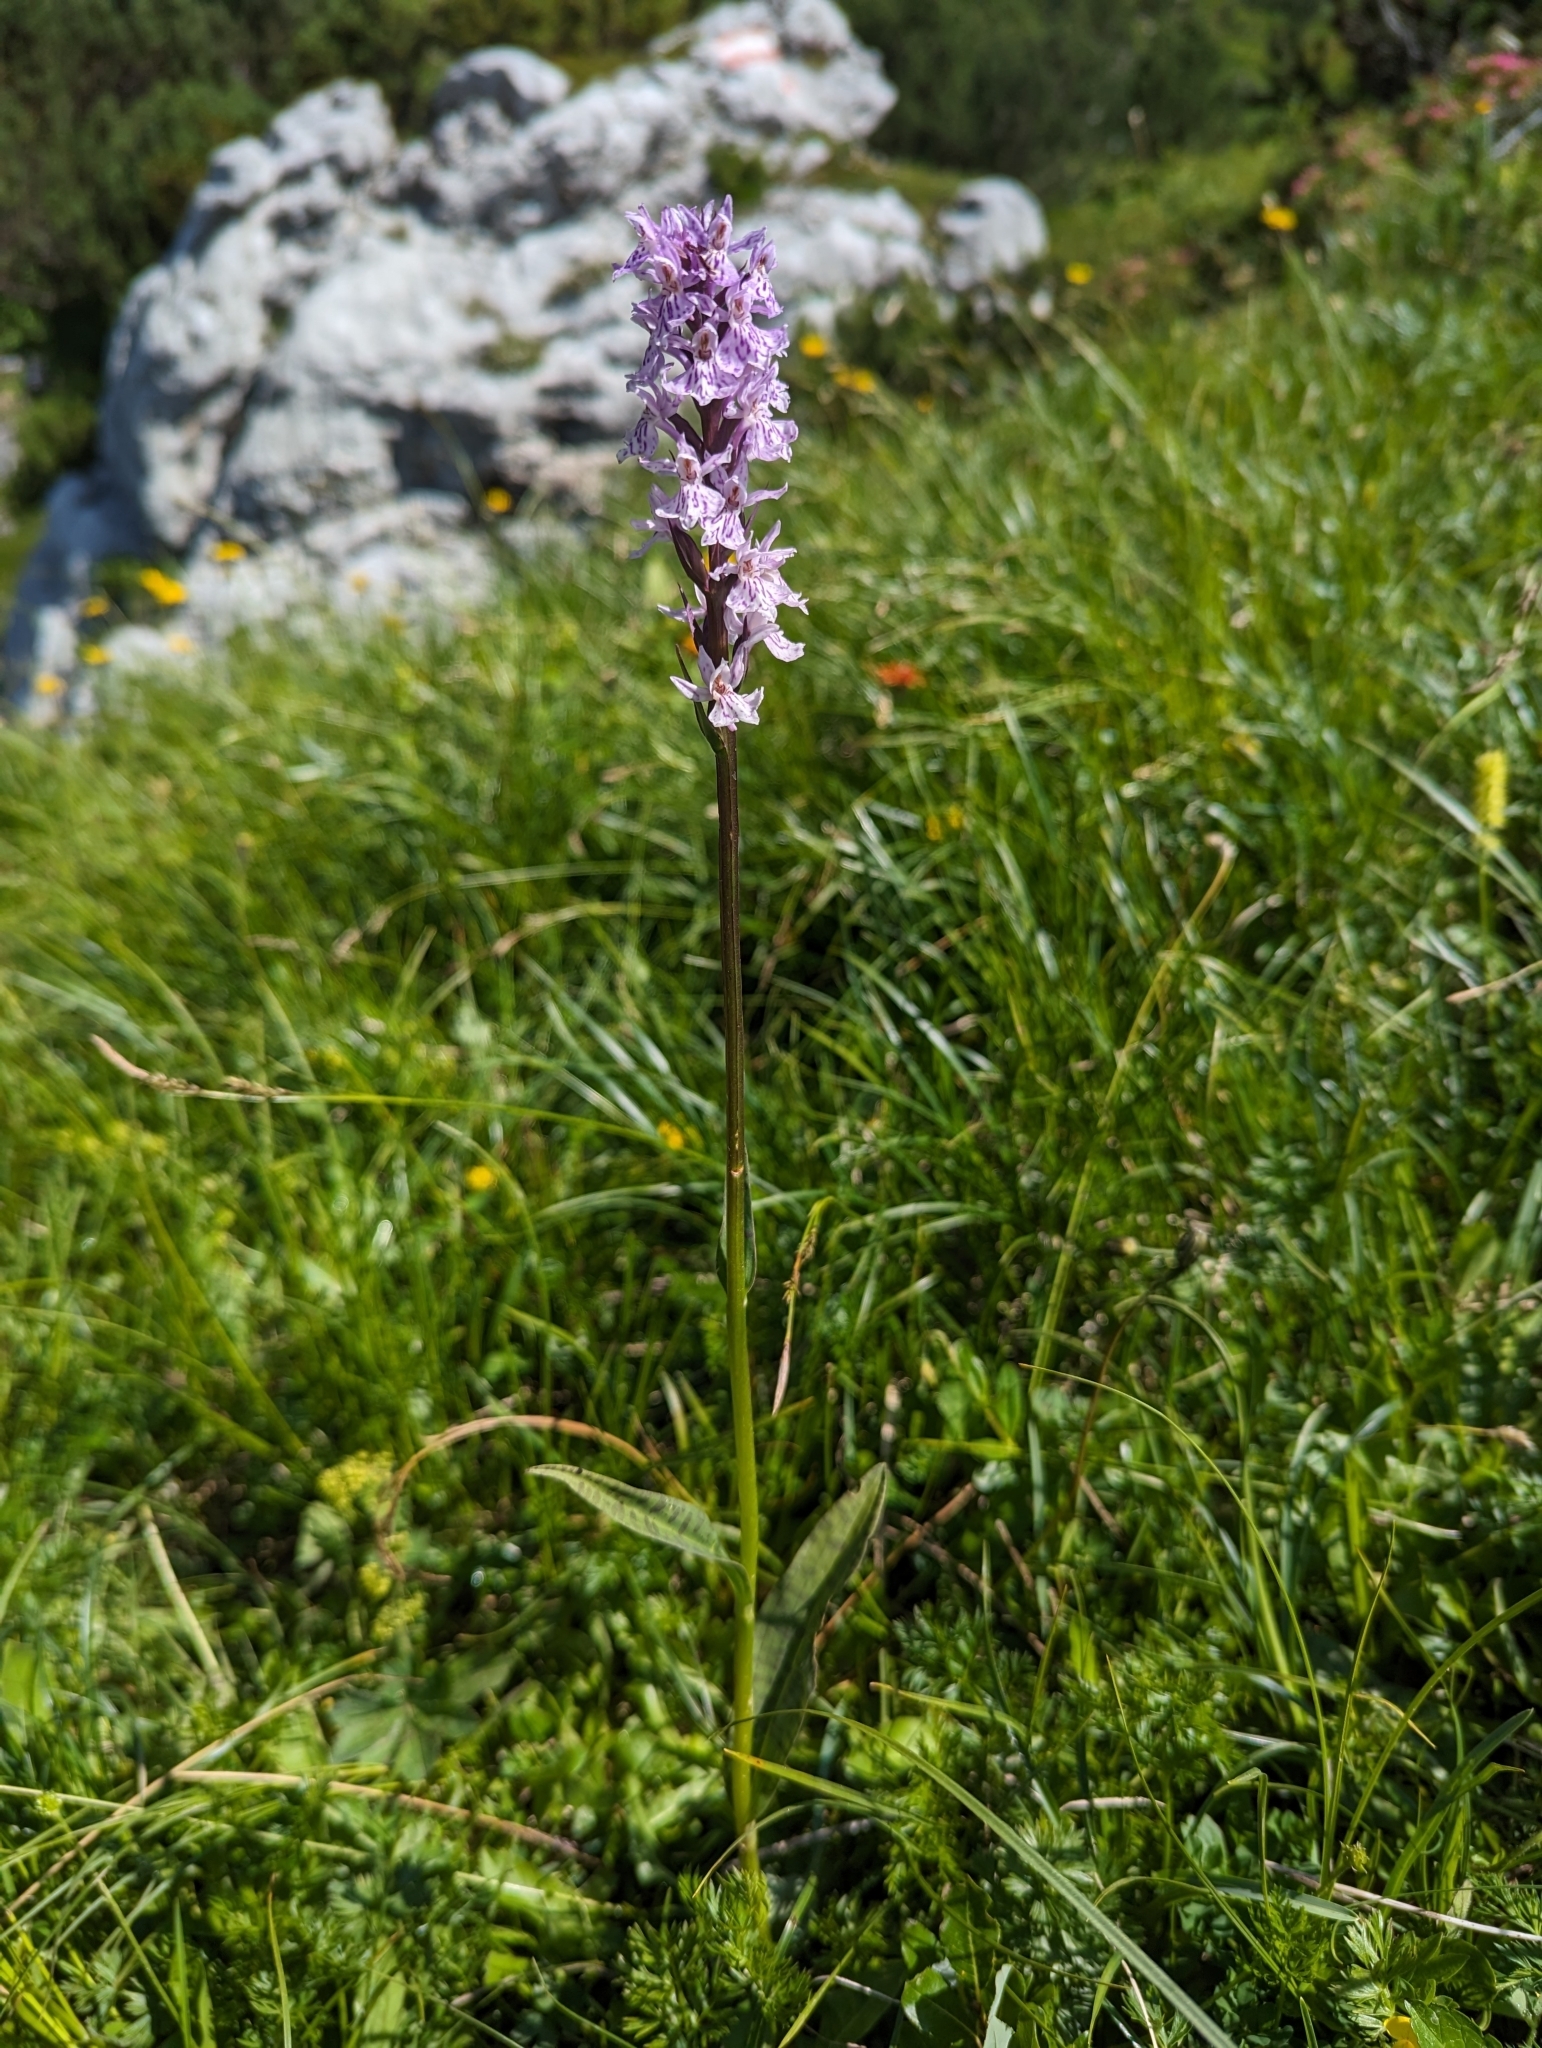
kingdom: Plantae
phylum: Tracheophyta
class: Liliopsida
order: Asparagales
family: Orchidaceae
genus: Dactylorhiza
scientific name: Dactylorhiza maculata
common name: Heath spotted-orchid
